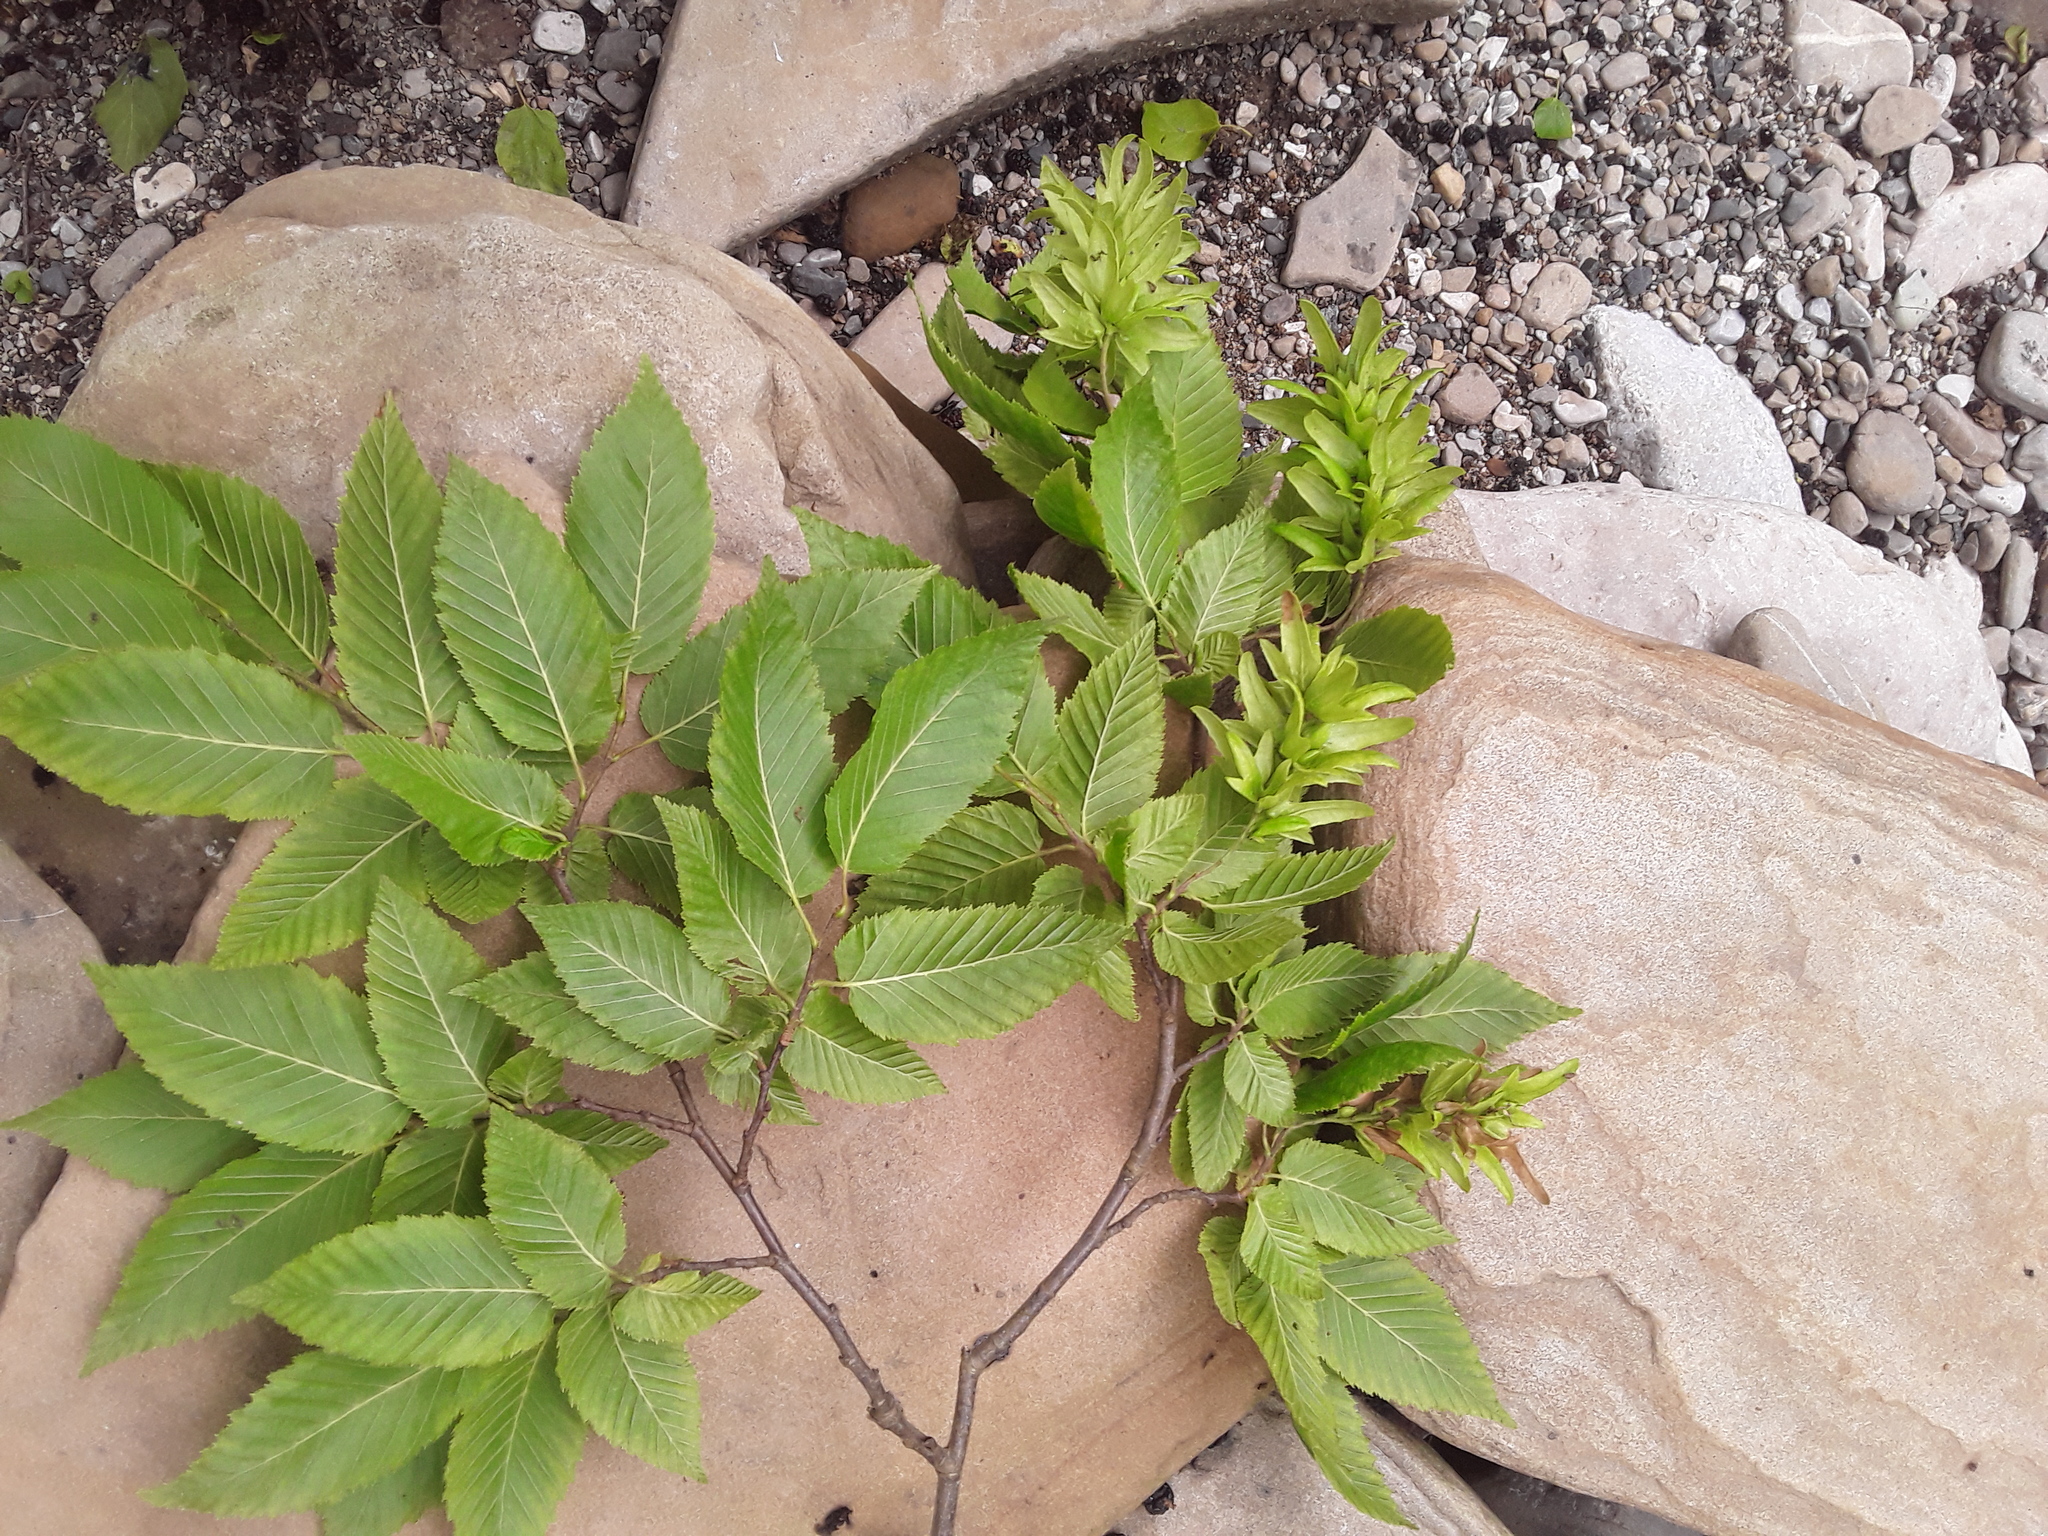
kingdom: Plantae
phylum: Tracheophyta
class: Magnoliopsida
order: Fagales
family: Betulaceae
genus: Carpinus
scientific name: Carpinus betulus
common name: Hornbeam
